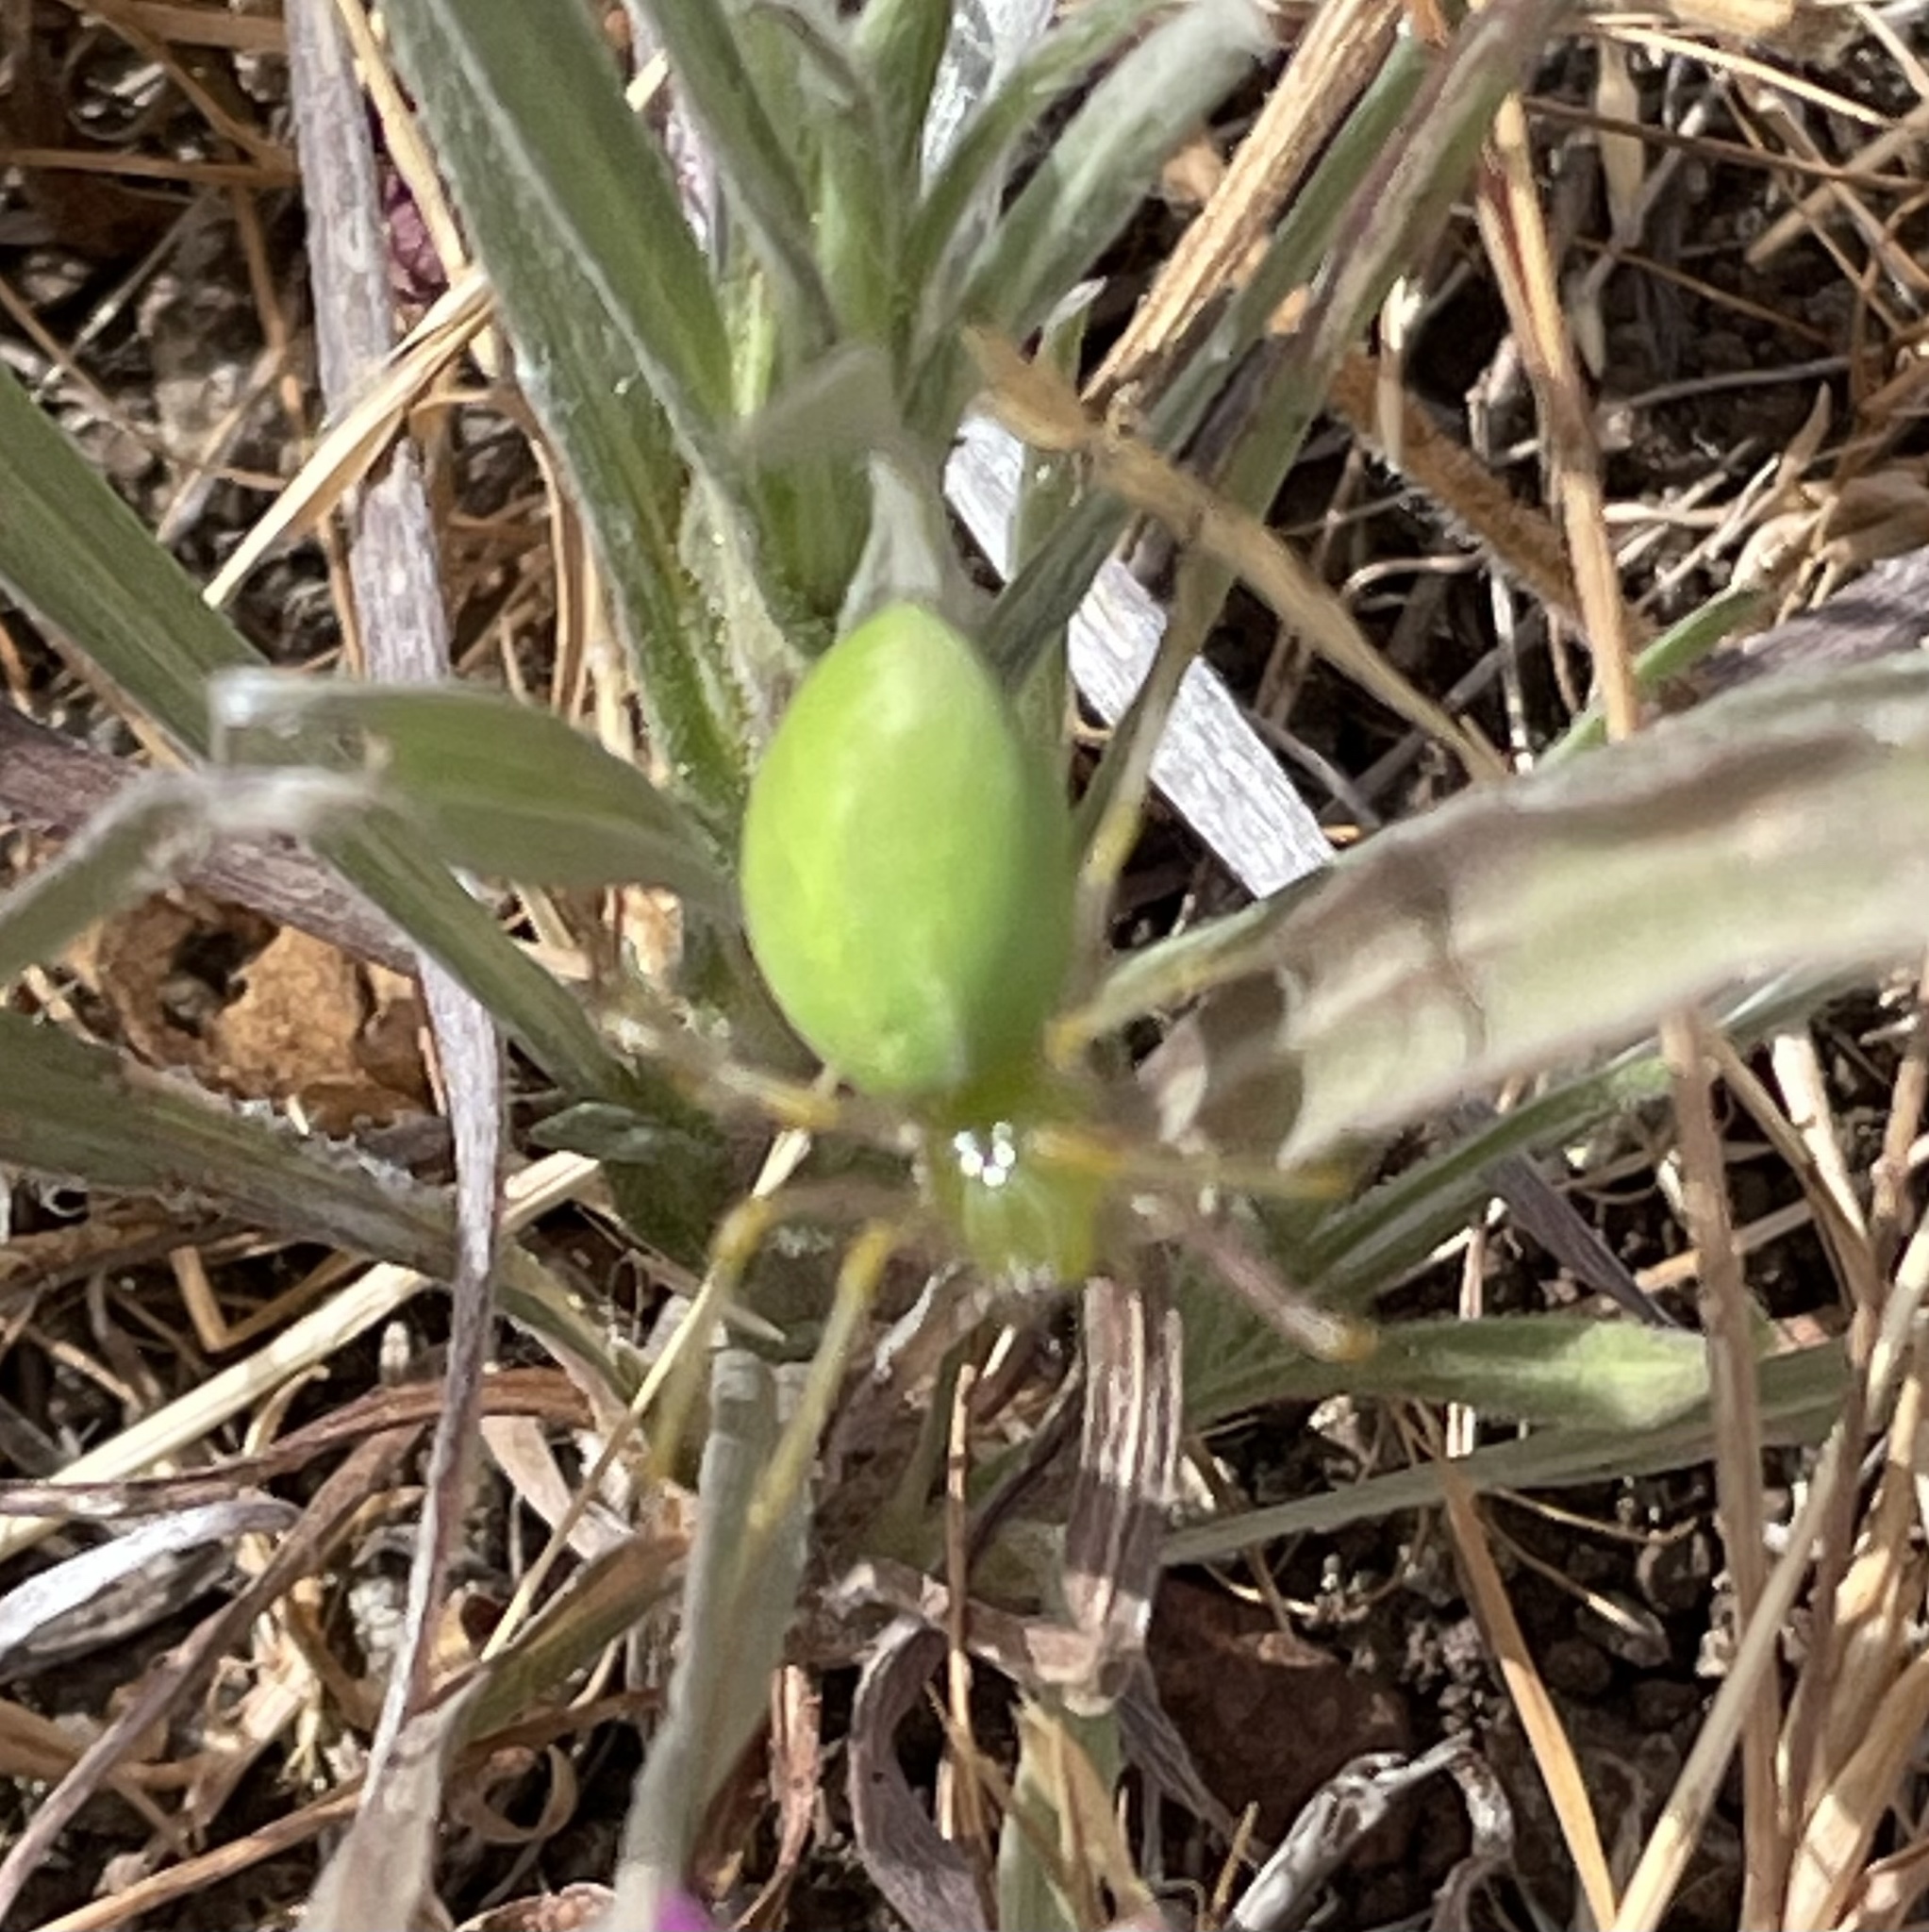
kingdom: Animalia
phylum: Arthropoda
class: Arachnida
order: Araneae
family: Oxyopidae
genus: Peucetia
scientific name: Peucetia longipalpis
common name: Lynx spiders
